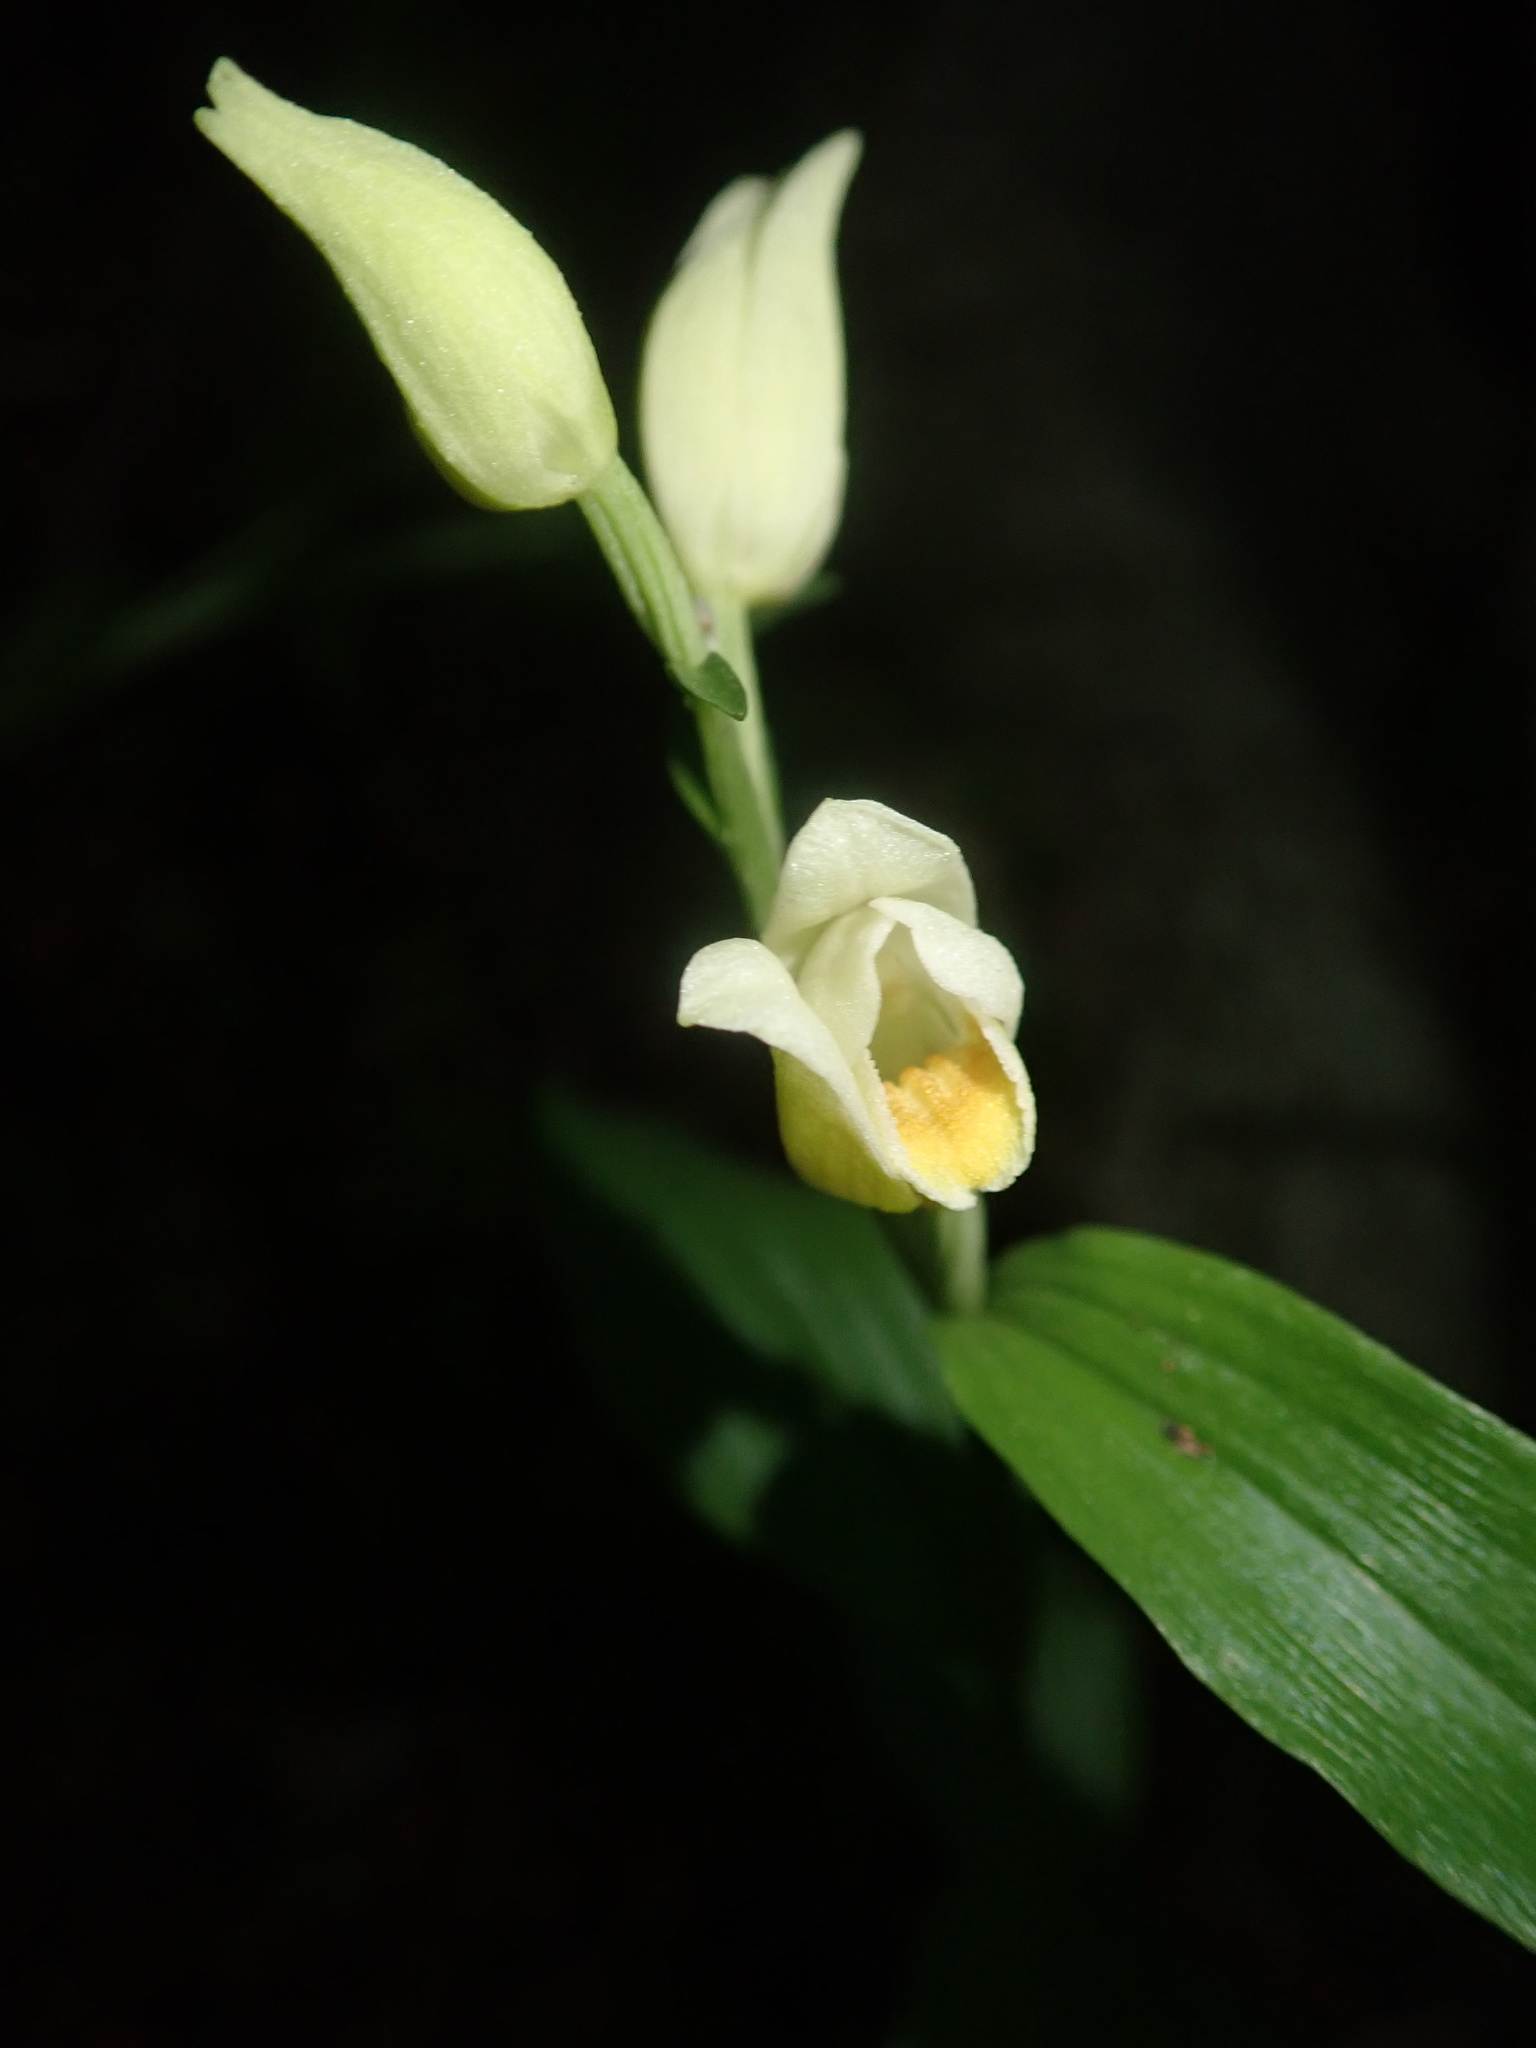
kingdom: Plantae
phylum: Tracheophyta
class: Liliopsida
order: Asparagales
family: Orchidaceae
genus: Cephalanthera
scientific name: Cephalanthera damasonium
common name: White helleborine
